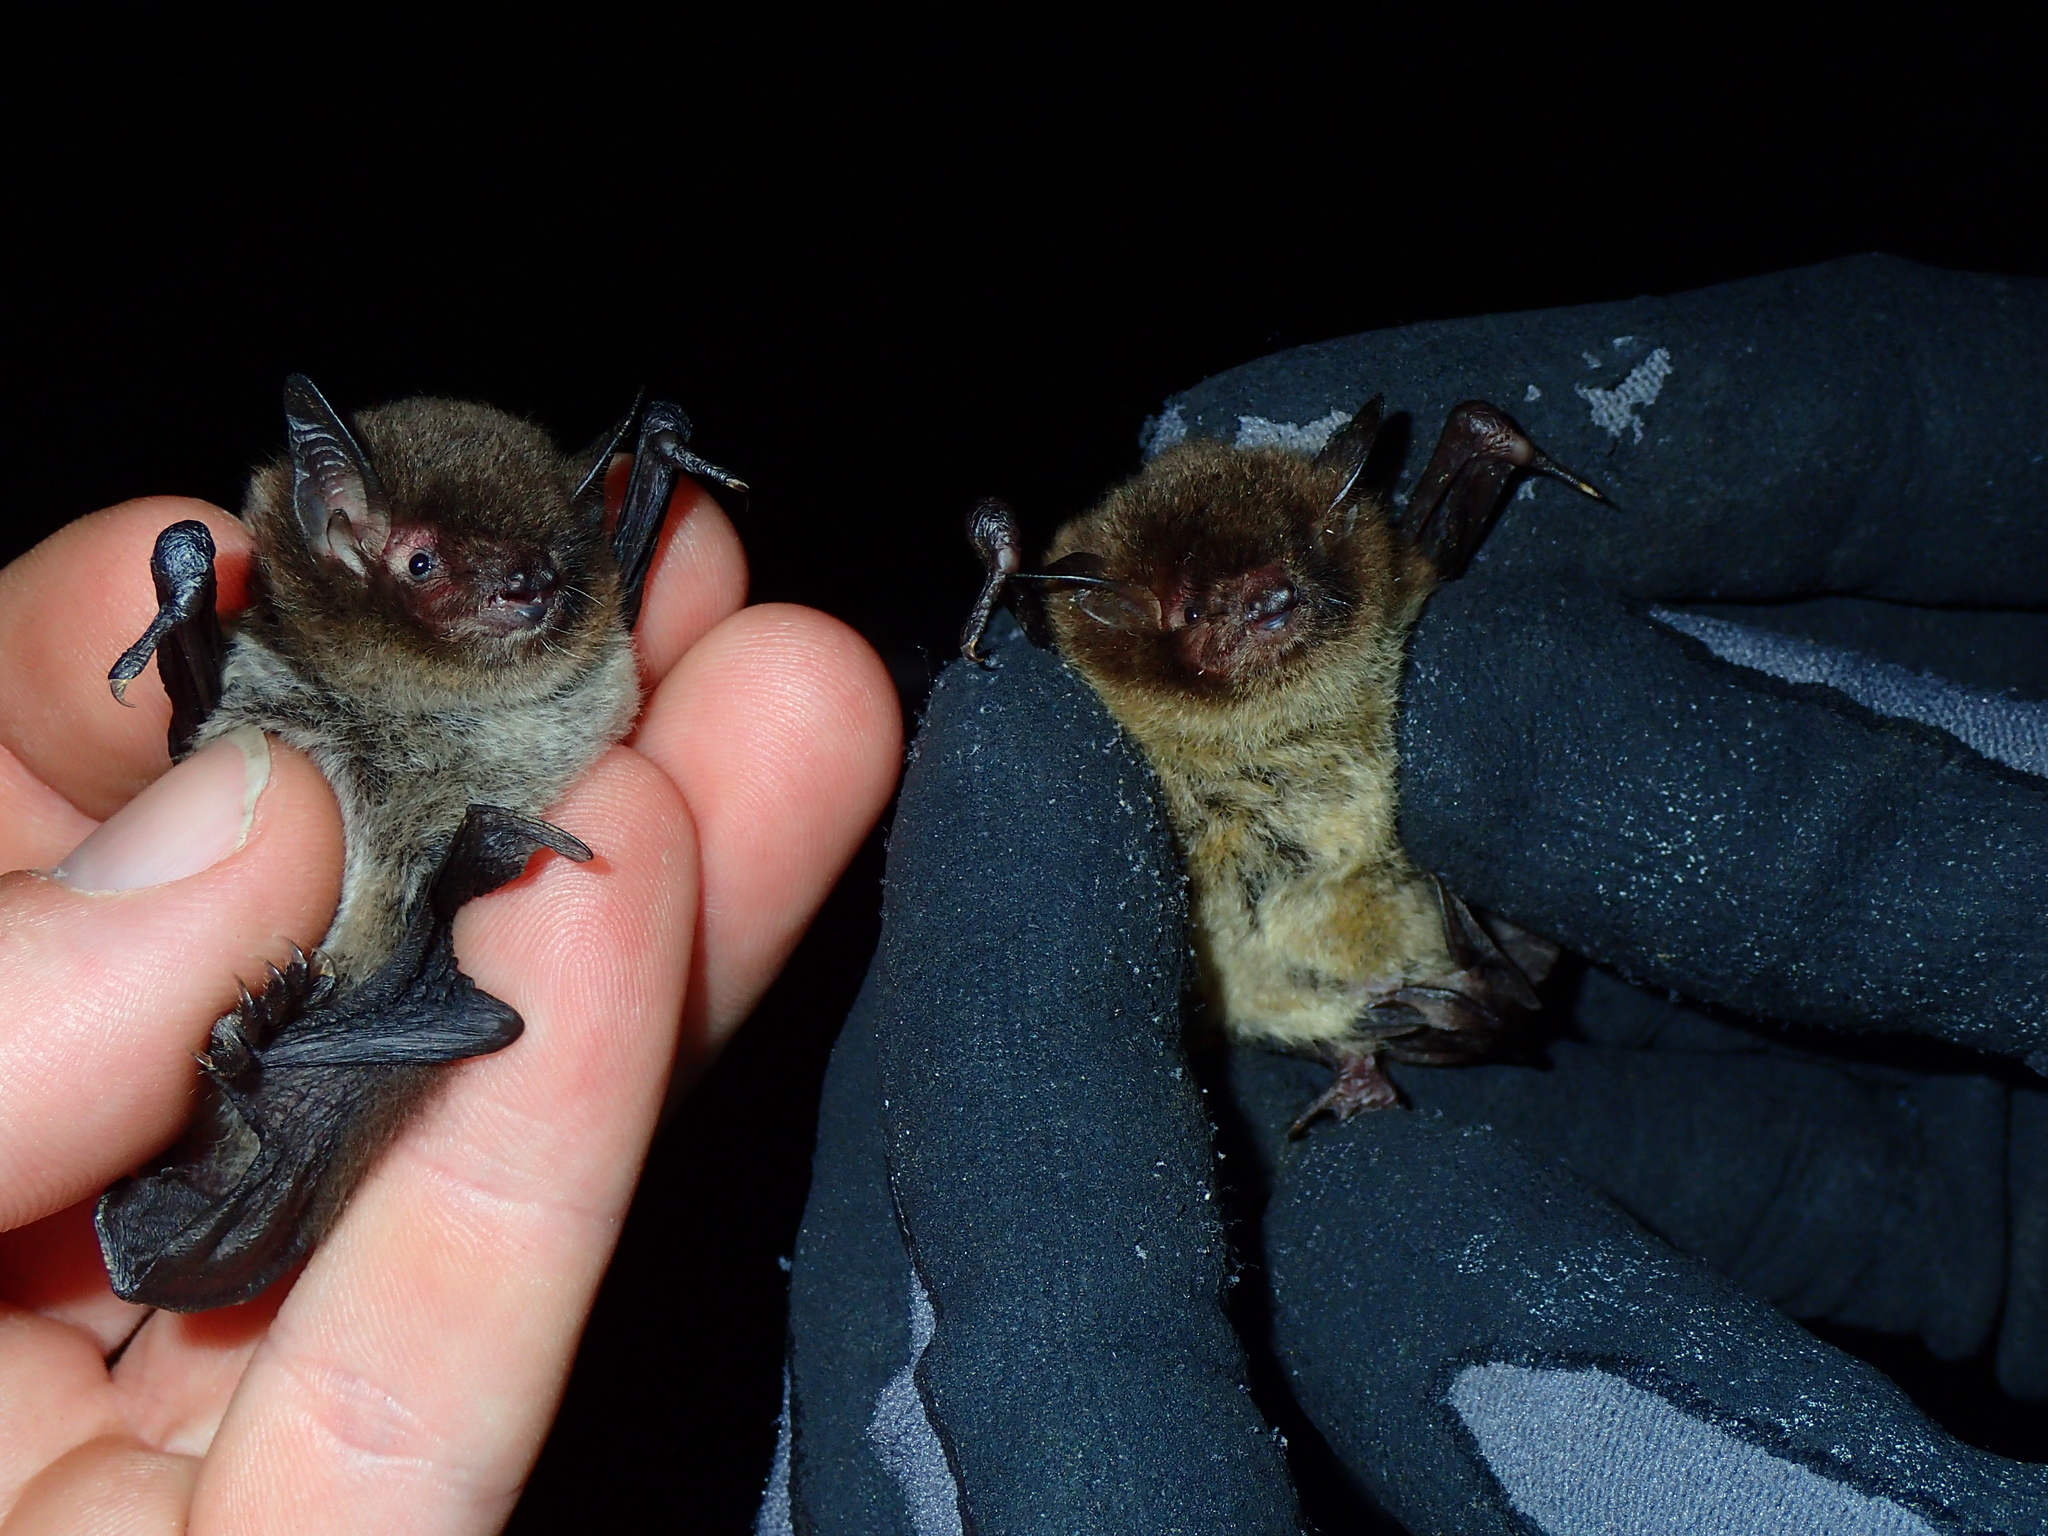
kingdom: Animalia
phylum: Chordata
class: Mammalia
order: Chiroptera
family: Vespertilionidae
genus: Myotis
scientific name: Myotis daubentonii
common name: Daubenton's myotis
